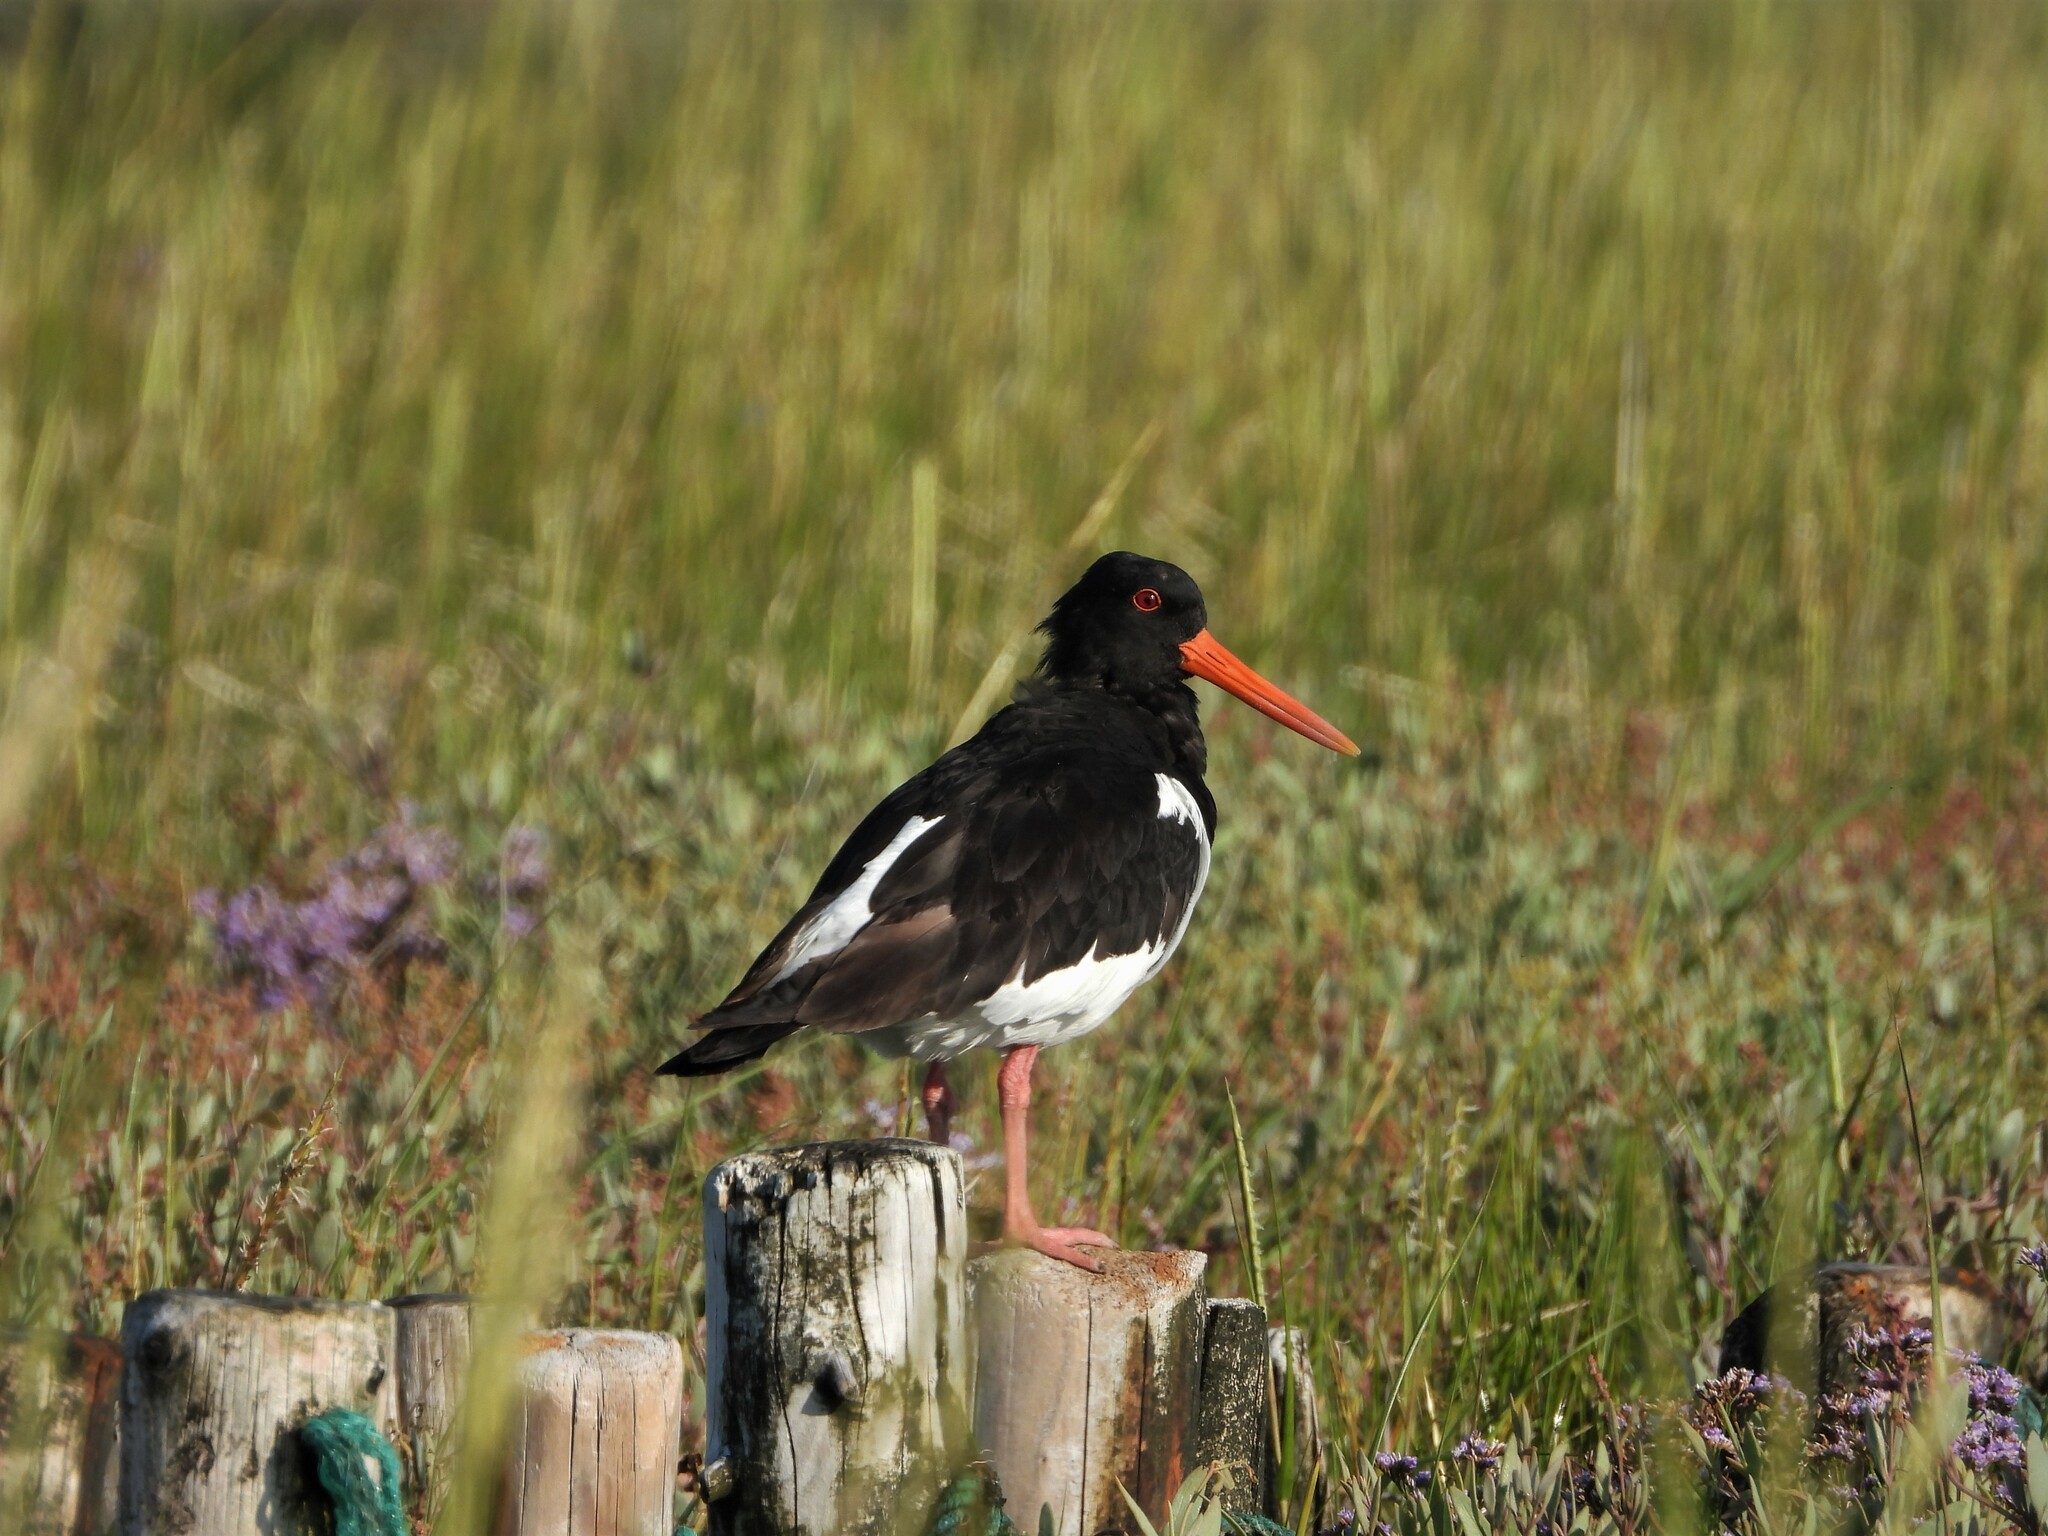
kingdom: Animalia
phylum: Chordata
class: Aves
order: Charadriiformes
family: Haematopodidae
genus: Haematopus
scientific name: Haematopus ostralegus
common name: Eurasian oystercatcher
